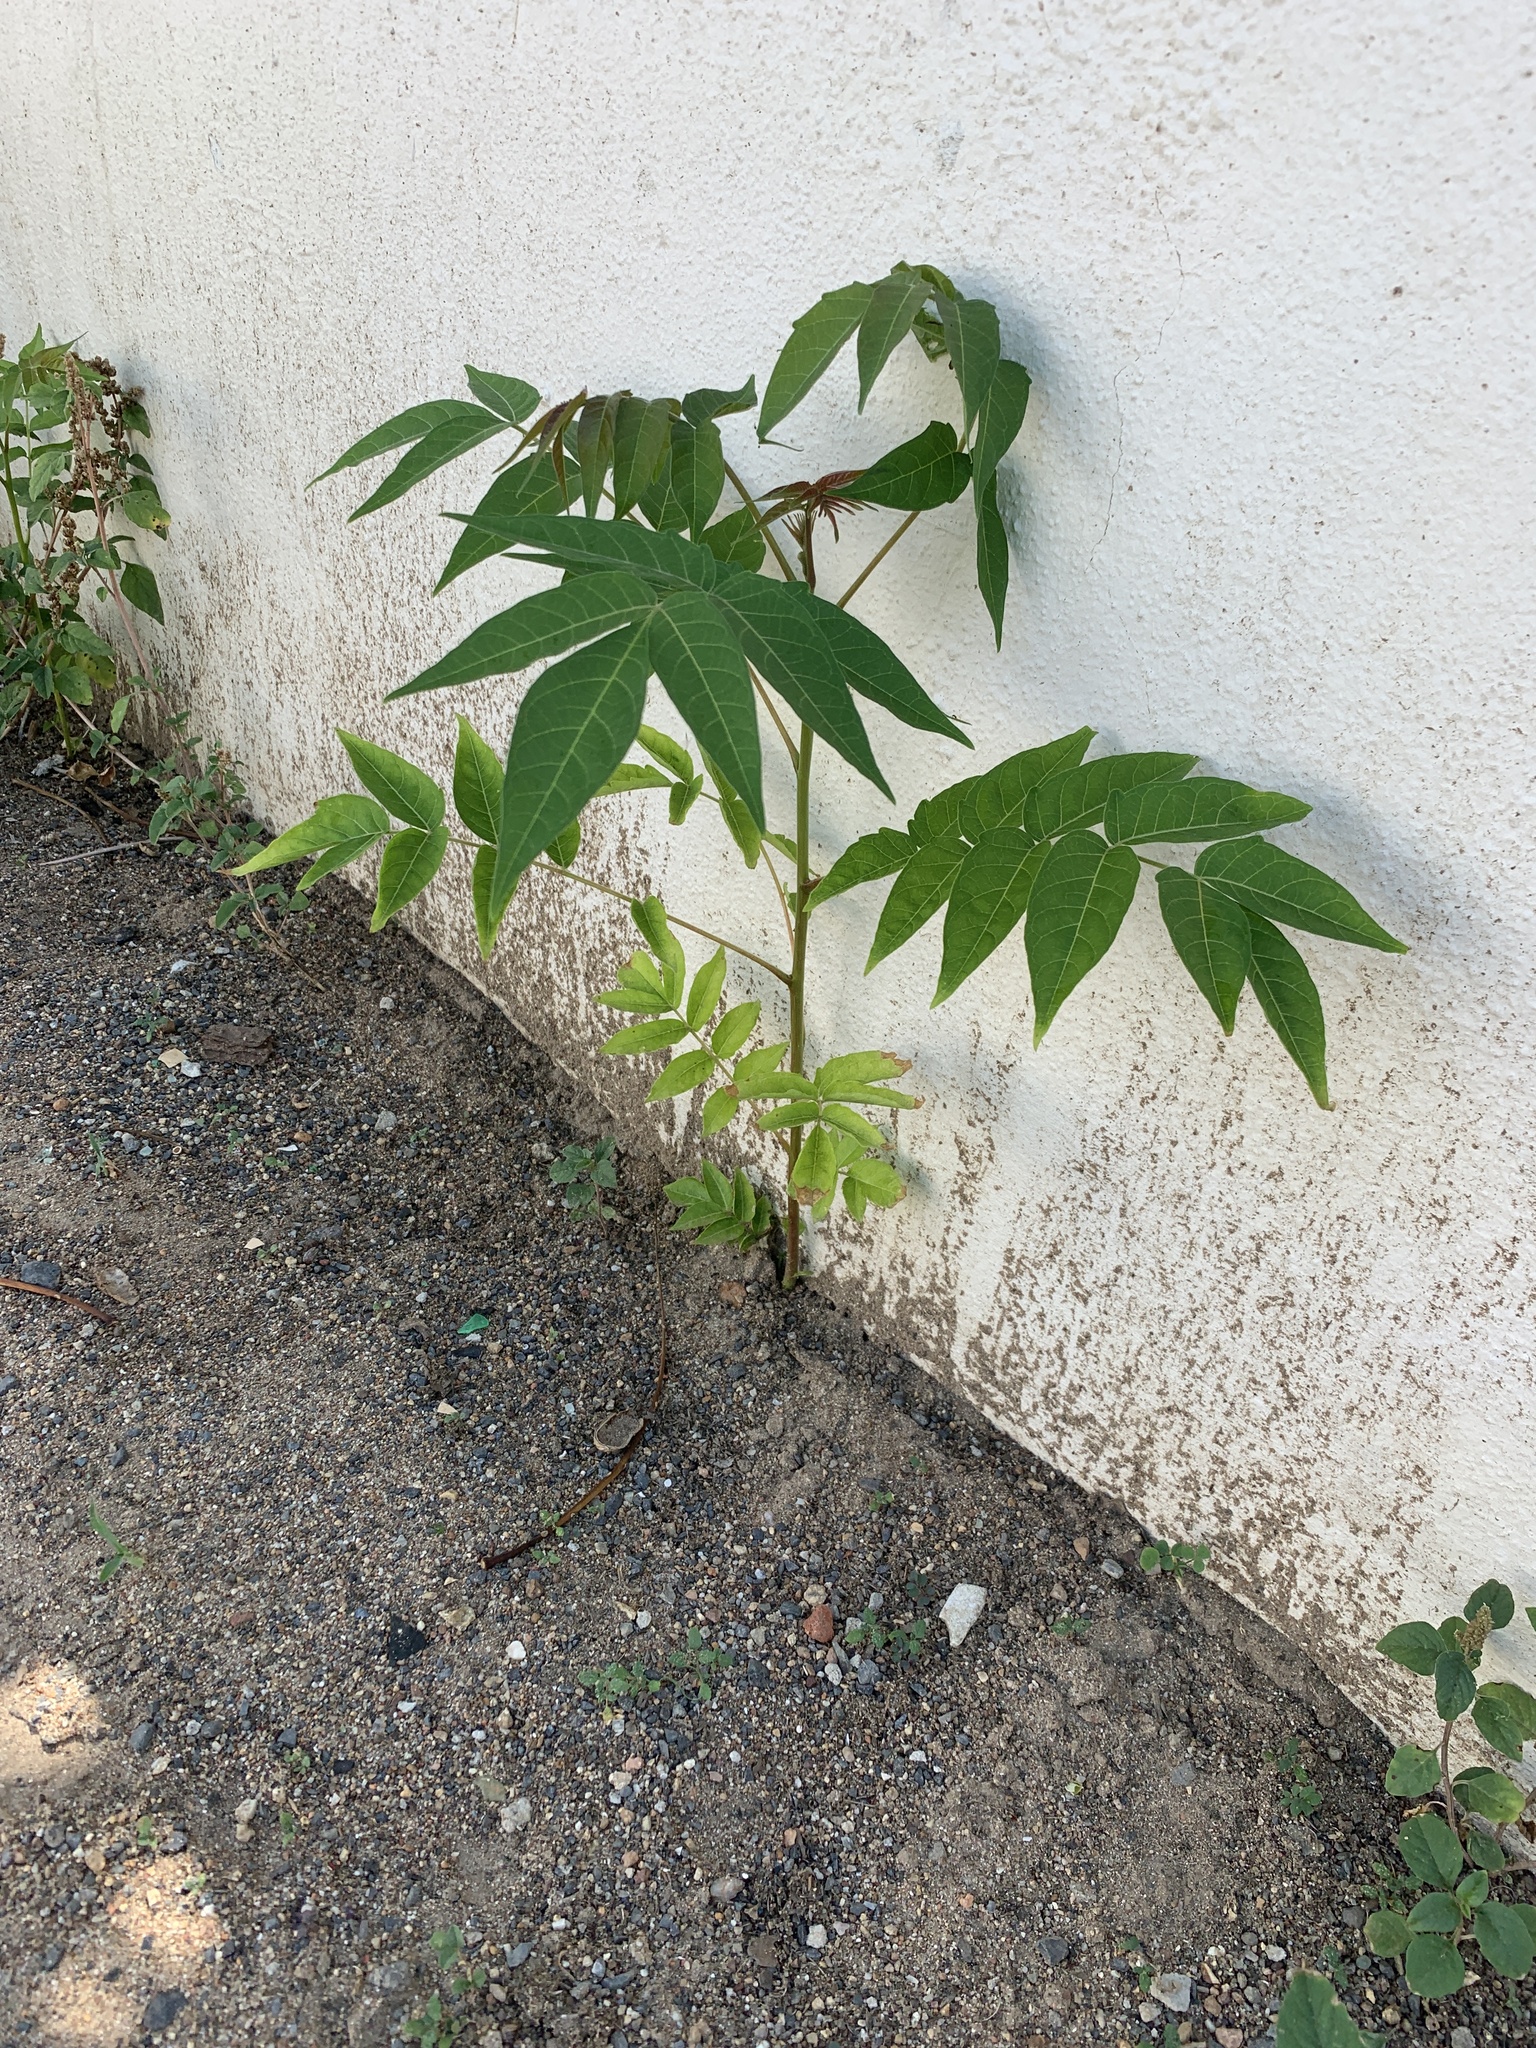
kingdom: Plantae
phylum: Tracheophyta
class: Magnoliopsida
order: Sapindales
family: Simaroubaceae
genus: Ailanthus
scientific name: Ailanthus altissima
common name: Tree-of-heaven
